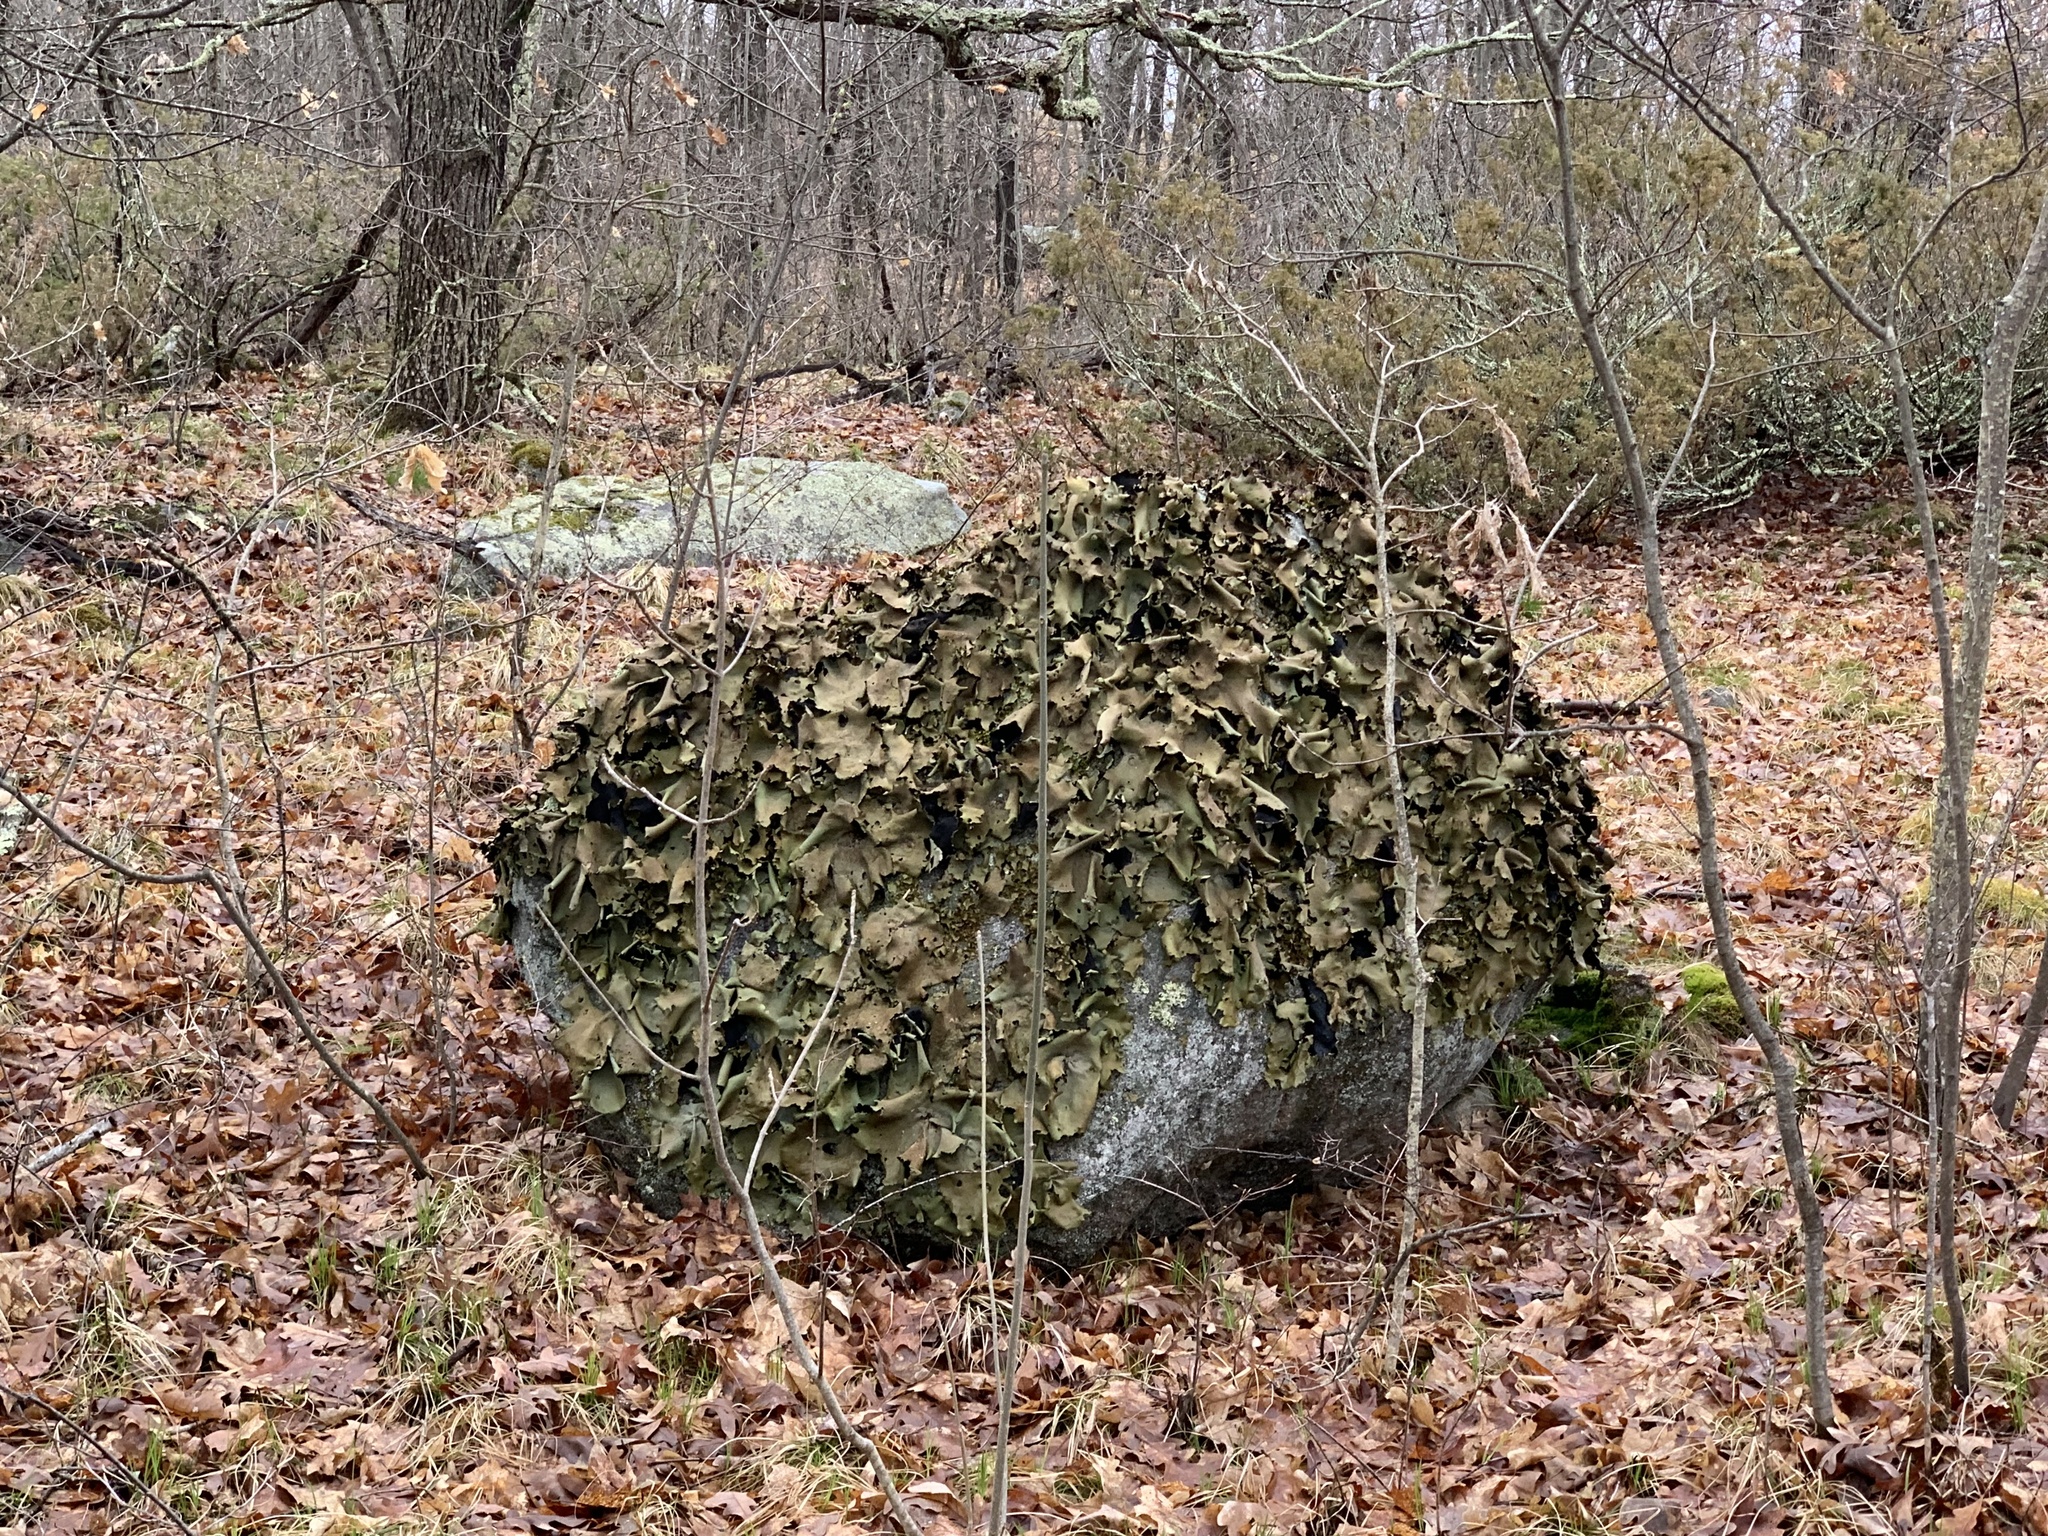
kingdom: Fungi
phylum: Ascomycota
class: Lecanoromycetes
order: Umbilicariales
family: Umbilicariaceae
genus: Umbilicaria
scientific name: Umbilicaria mammulata
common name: Smooth rock tripe
